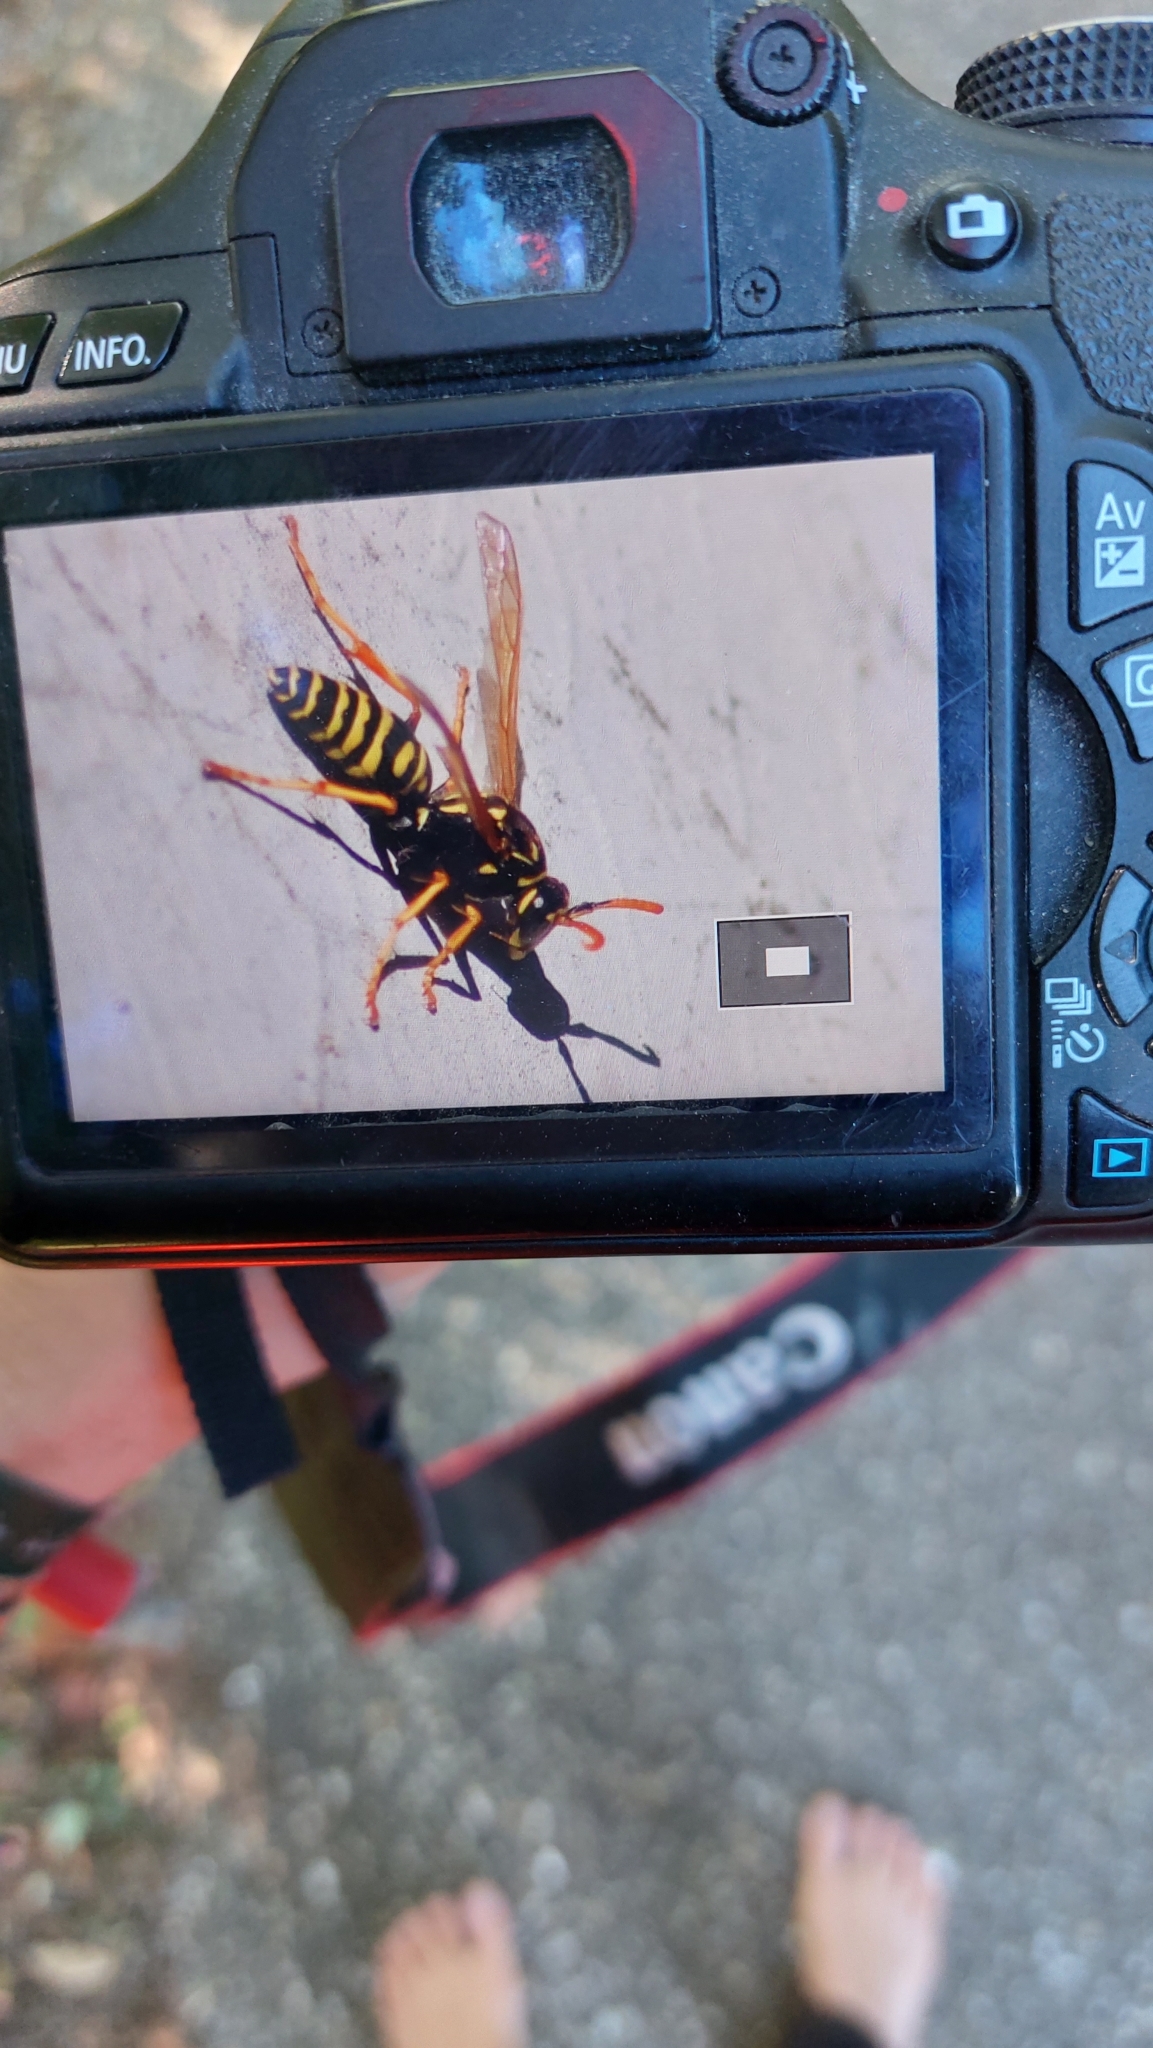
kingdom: Animalia
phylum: Arthropoda
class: Insecta
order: Hymenoptera
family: Eumenidae
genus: Polistes
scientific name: Polistes dominula
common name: Paper wasp
